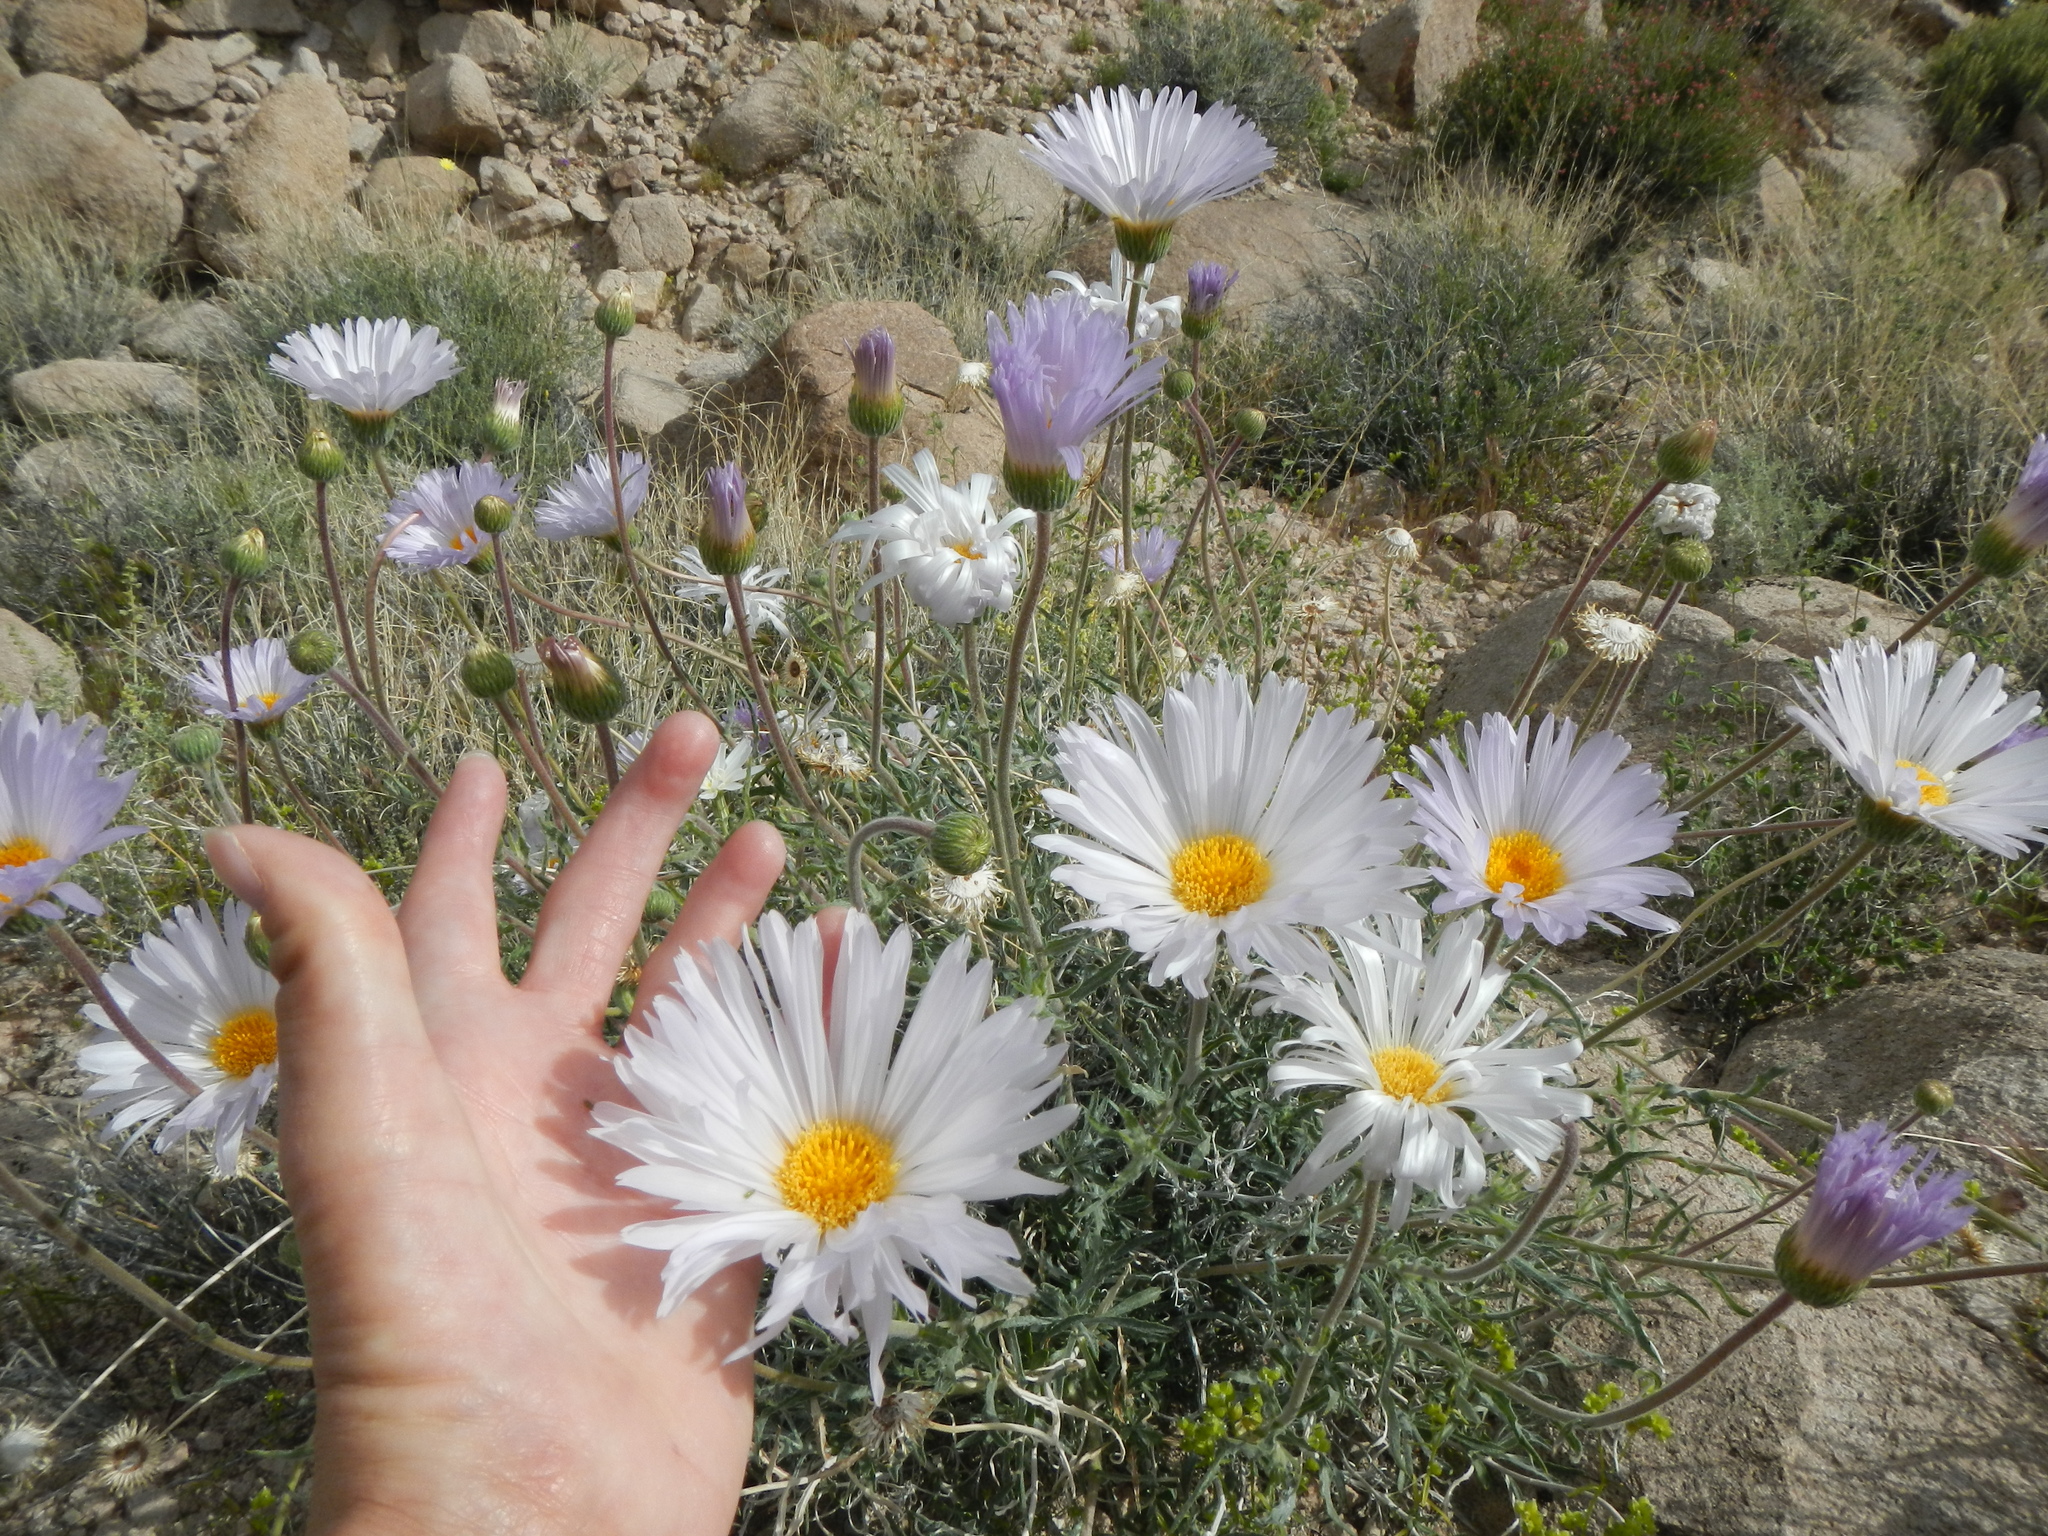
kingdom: Plantae
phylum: Tracheophyta
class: Magnoliopsida
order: Asterales
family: Asteraceae
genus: Xylorhiza
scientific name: Xylorhiza tortifolia
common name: Hurt-leaf woody-aster
